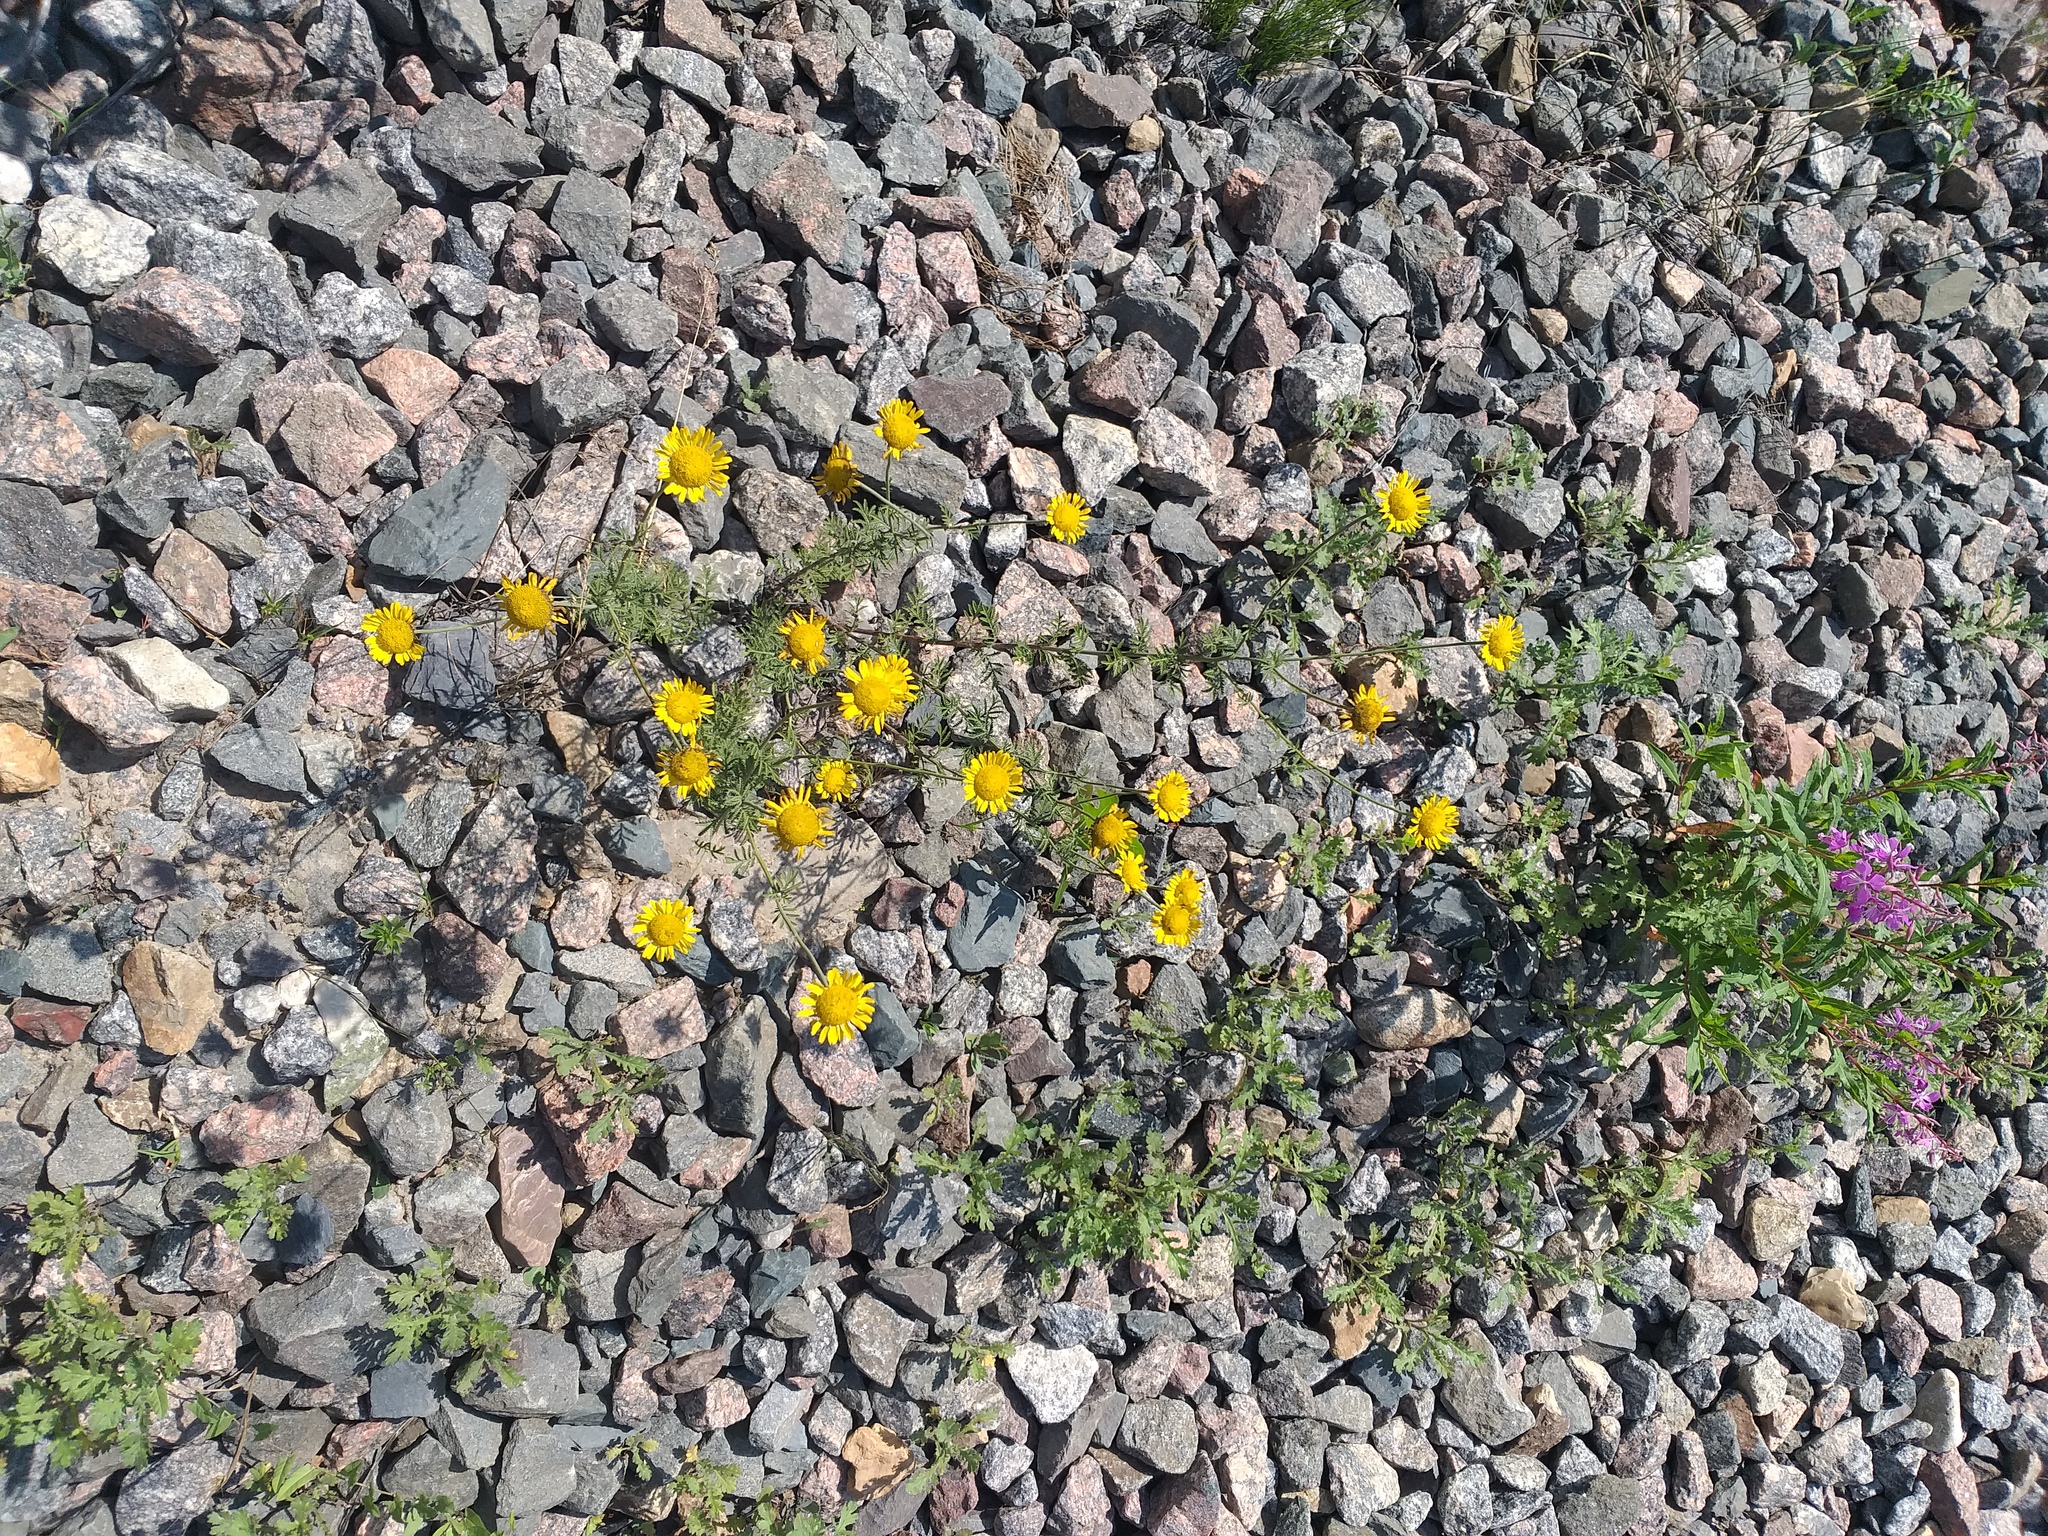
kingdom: Plantae
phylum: Tracheophyta
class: Magnoliopsida
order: Asterales
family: Asteraceae
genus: Cota
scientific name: Cota tinctoria
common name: Golden chamomile
